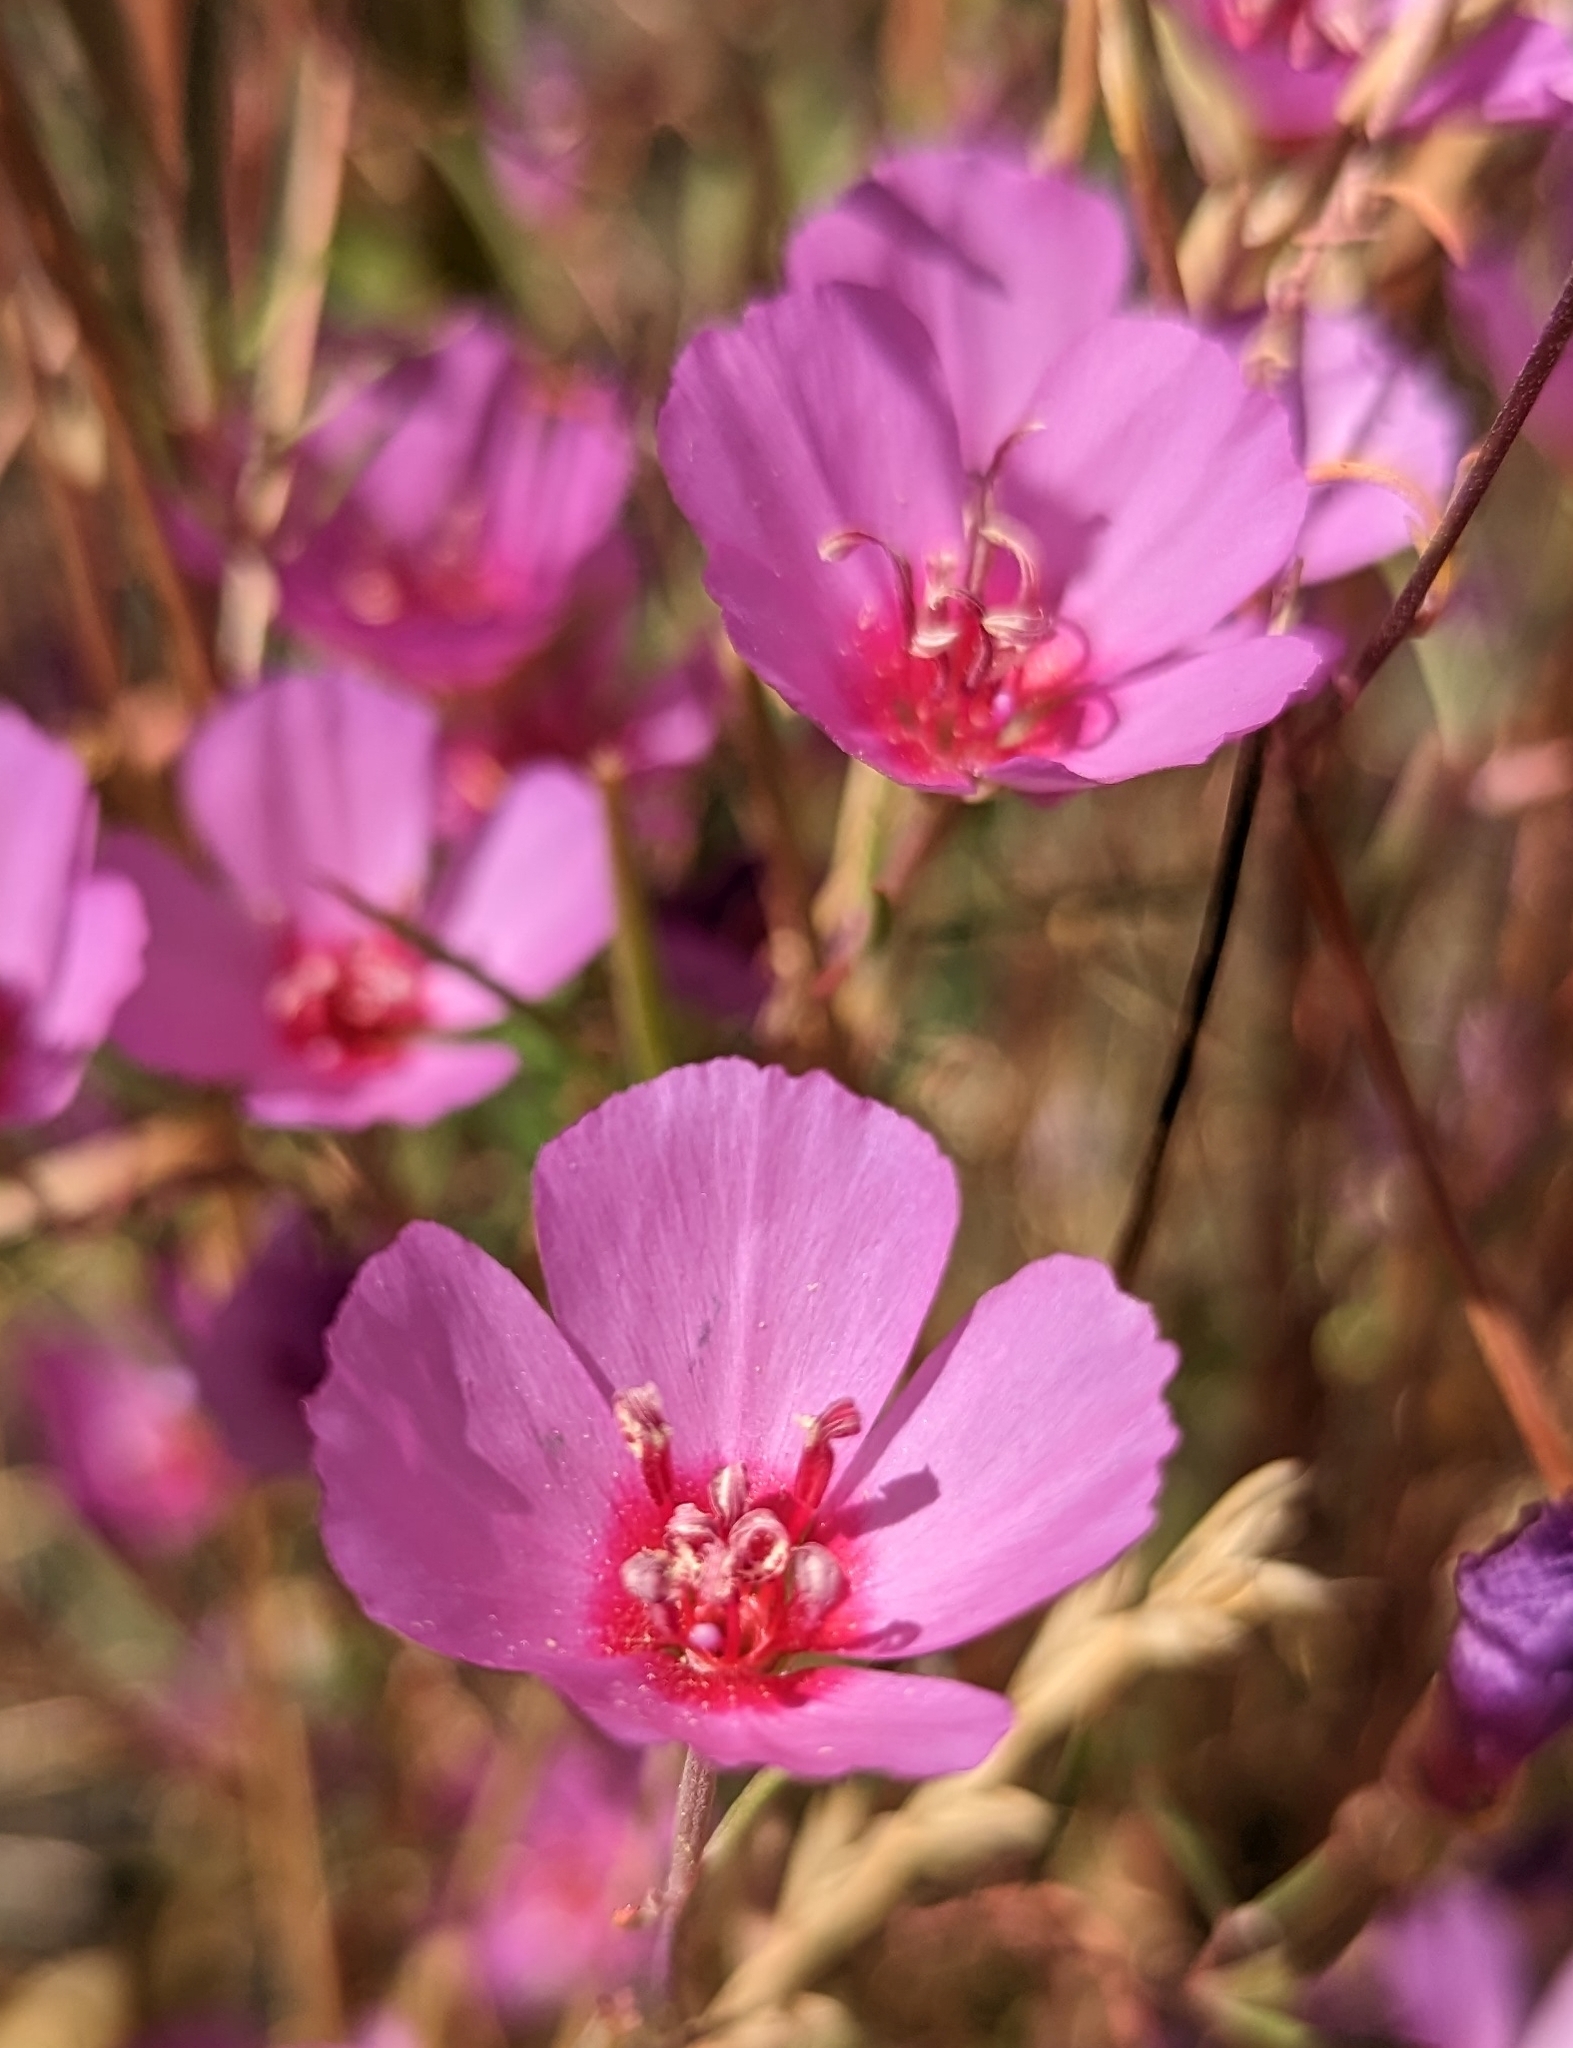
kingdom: Plantae
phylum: Tracheophyta
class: Magnoliopsida
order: Myrtales
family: Onagraceae
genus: Clarkia
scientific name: Clarkia rubicunda
